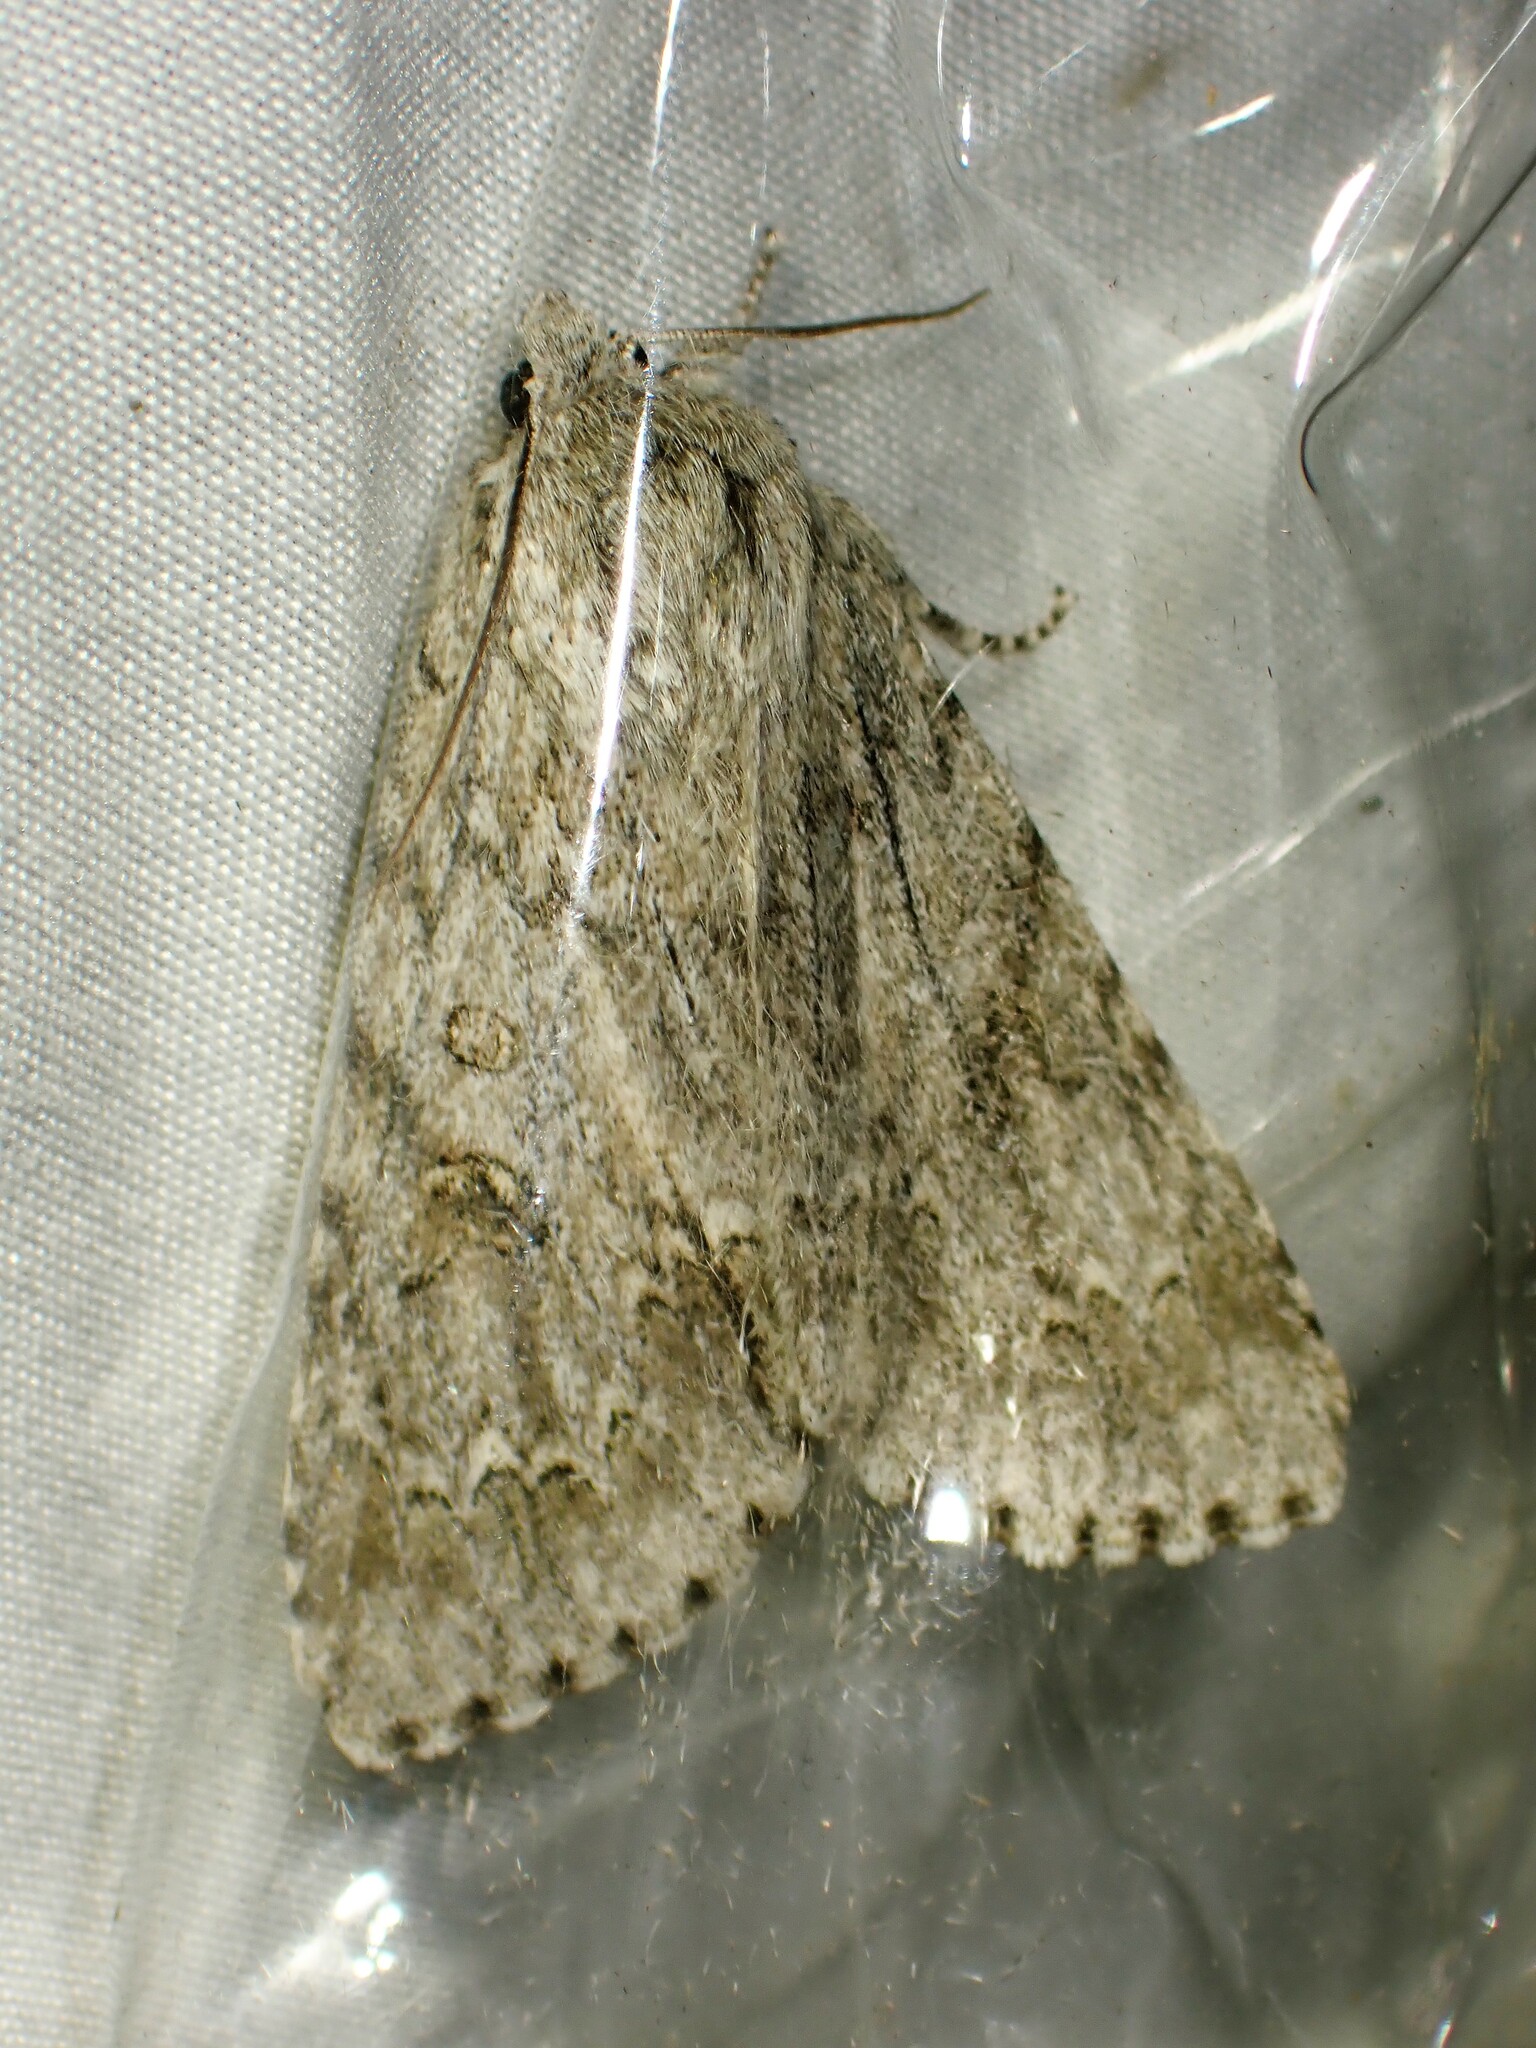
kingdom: Animalia
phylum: Arthropoda
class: Insecta
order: Lepidoptera
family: Noctuidae
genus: Acronicta
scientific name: Acronicta americana
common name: American dagger
